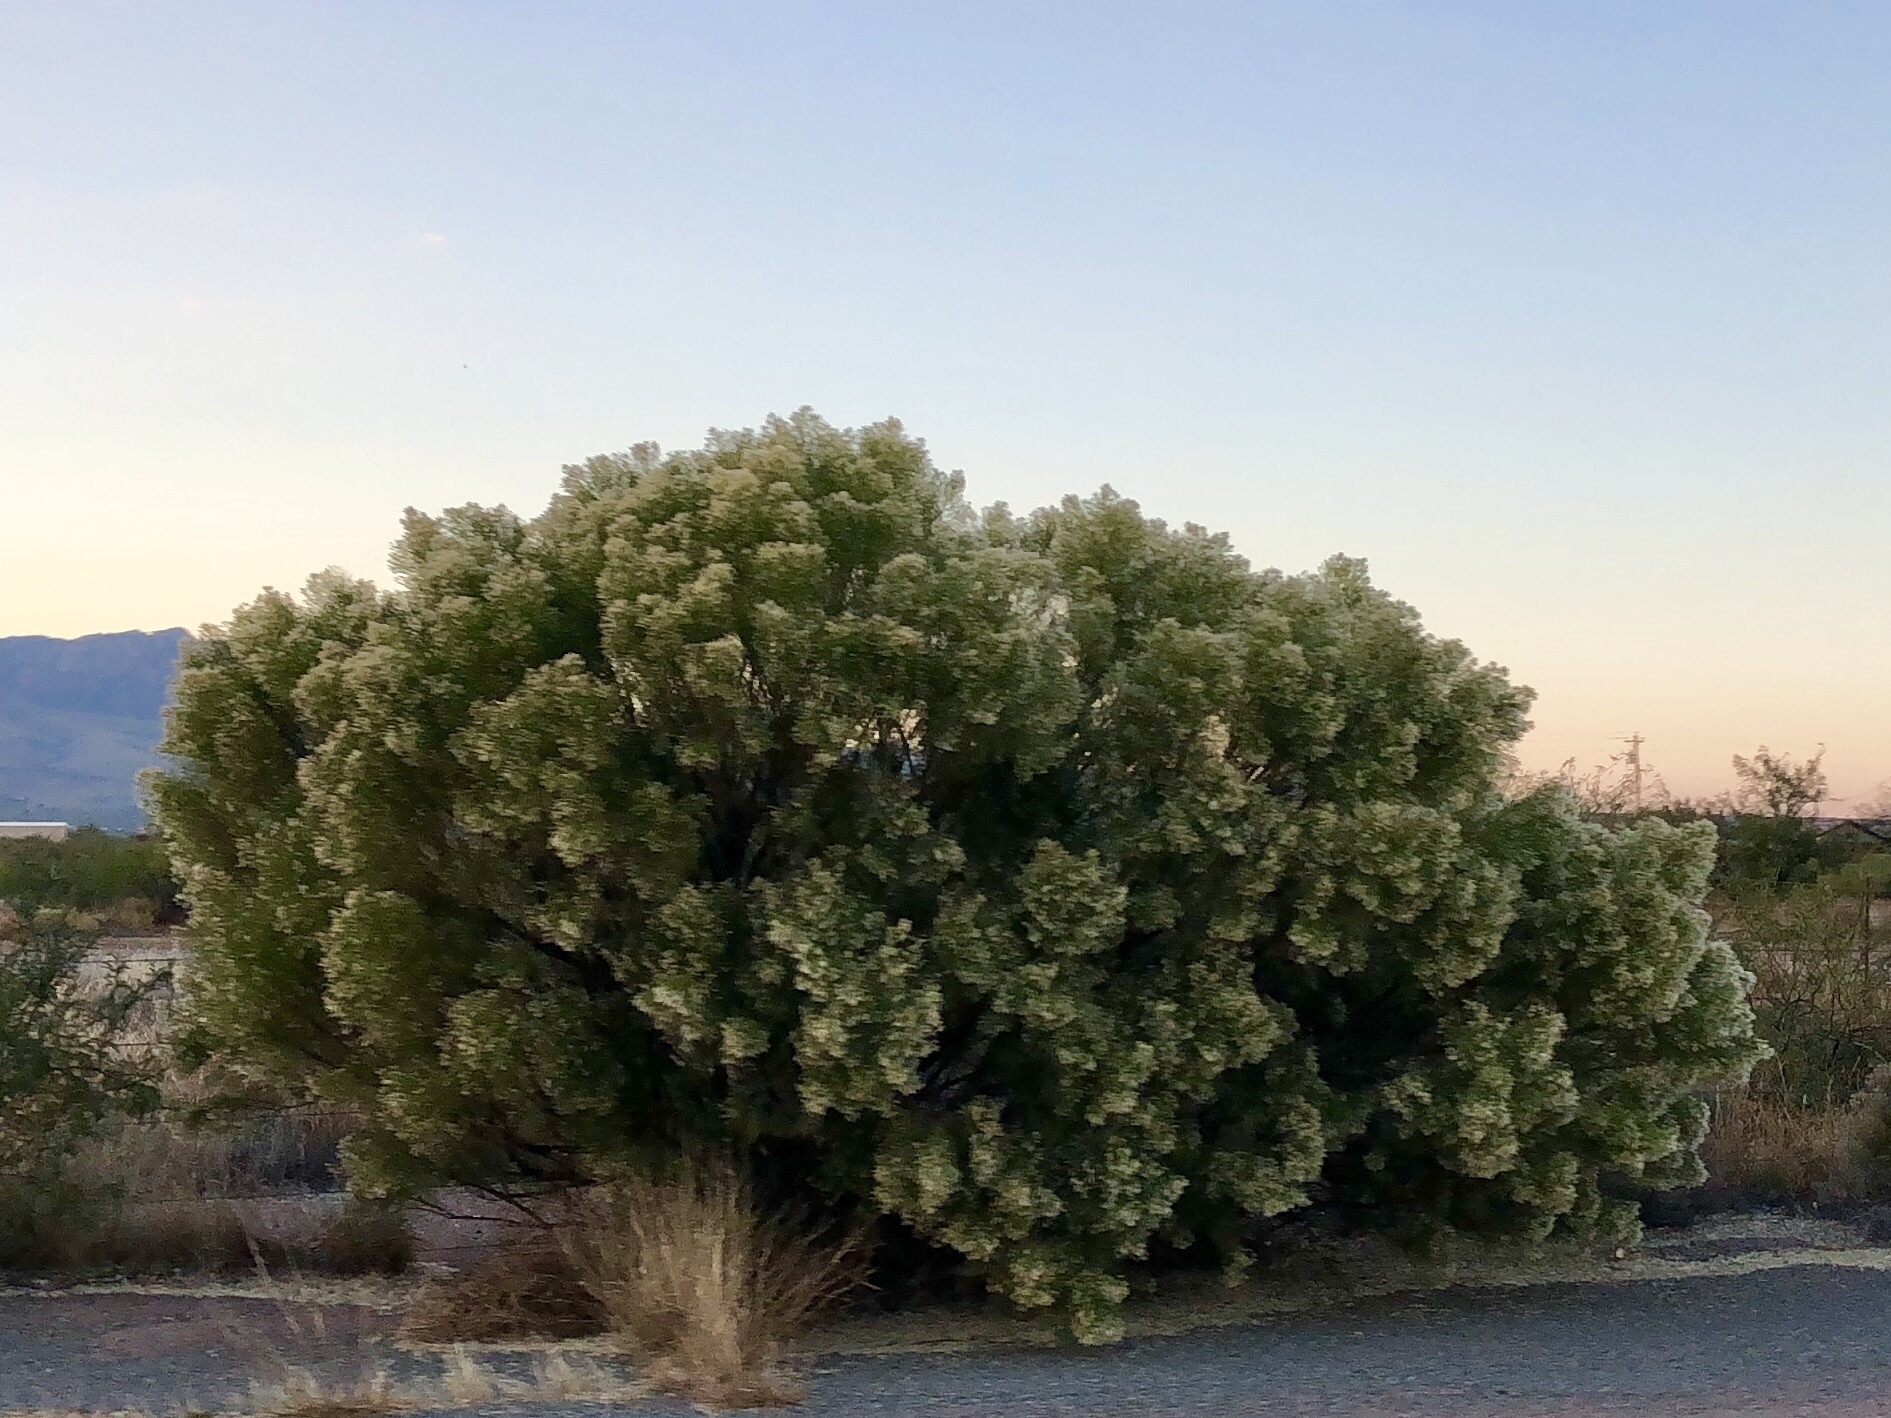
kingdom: Plantae
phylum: Tracheophyta
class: Magnoliopsida
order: Asterales
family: Asteraceae
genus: Baccharis
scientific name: Baccharis sarothroides
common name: Desert-broom
